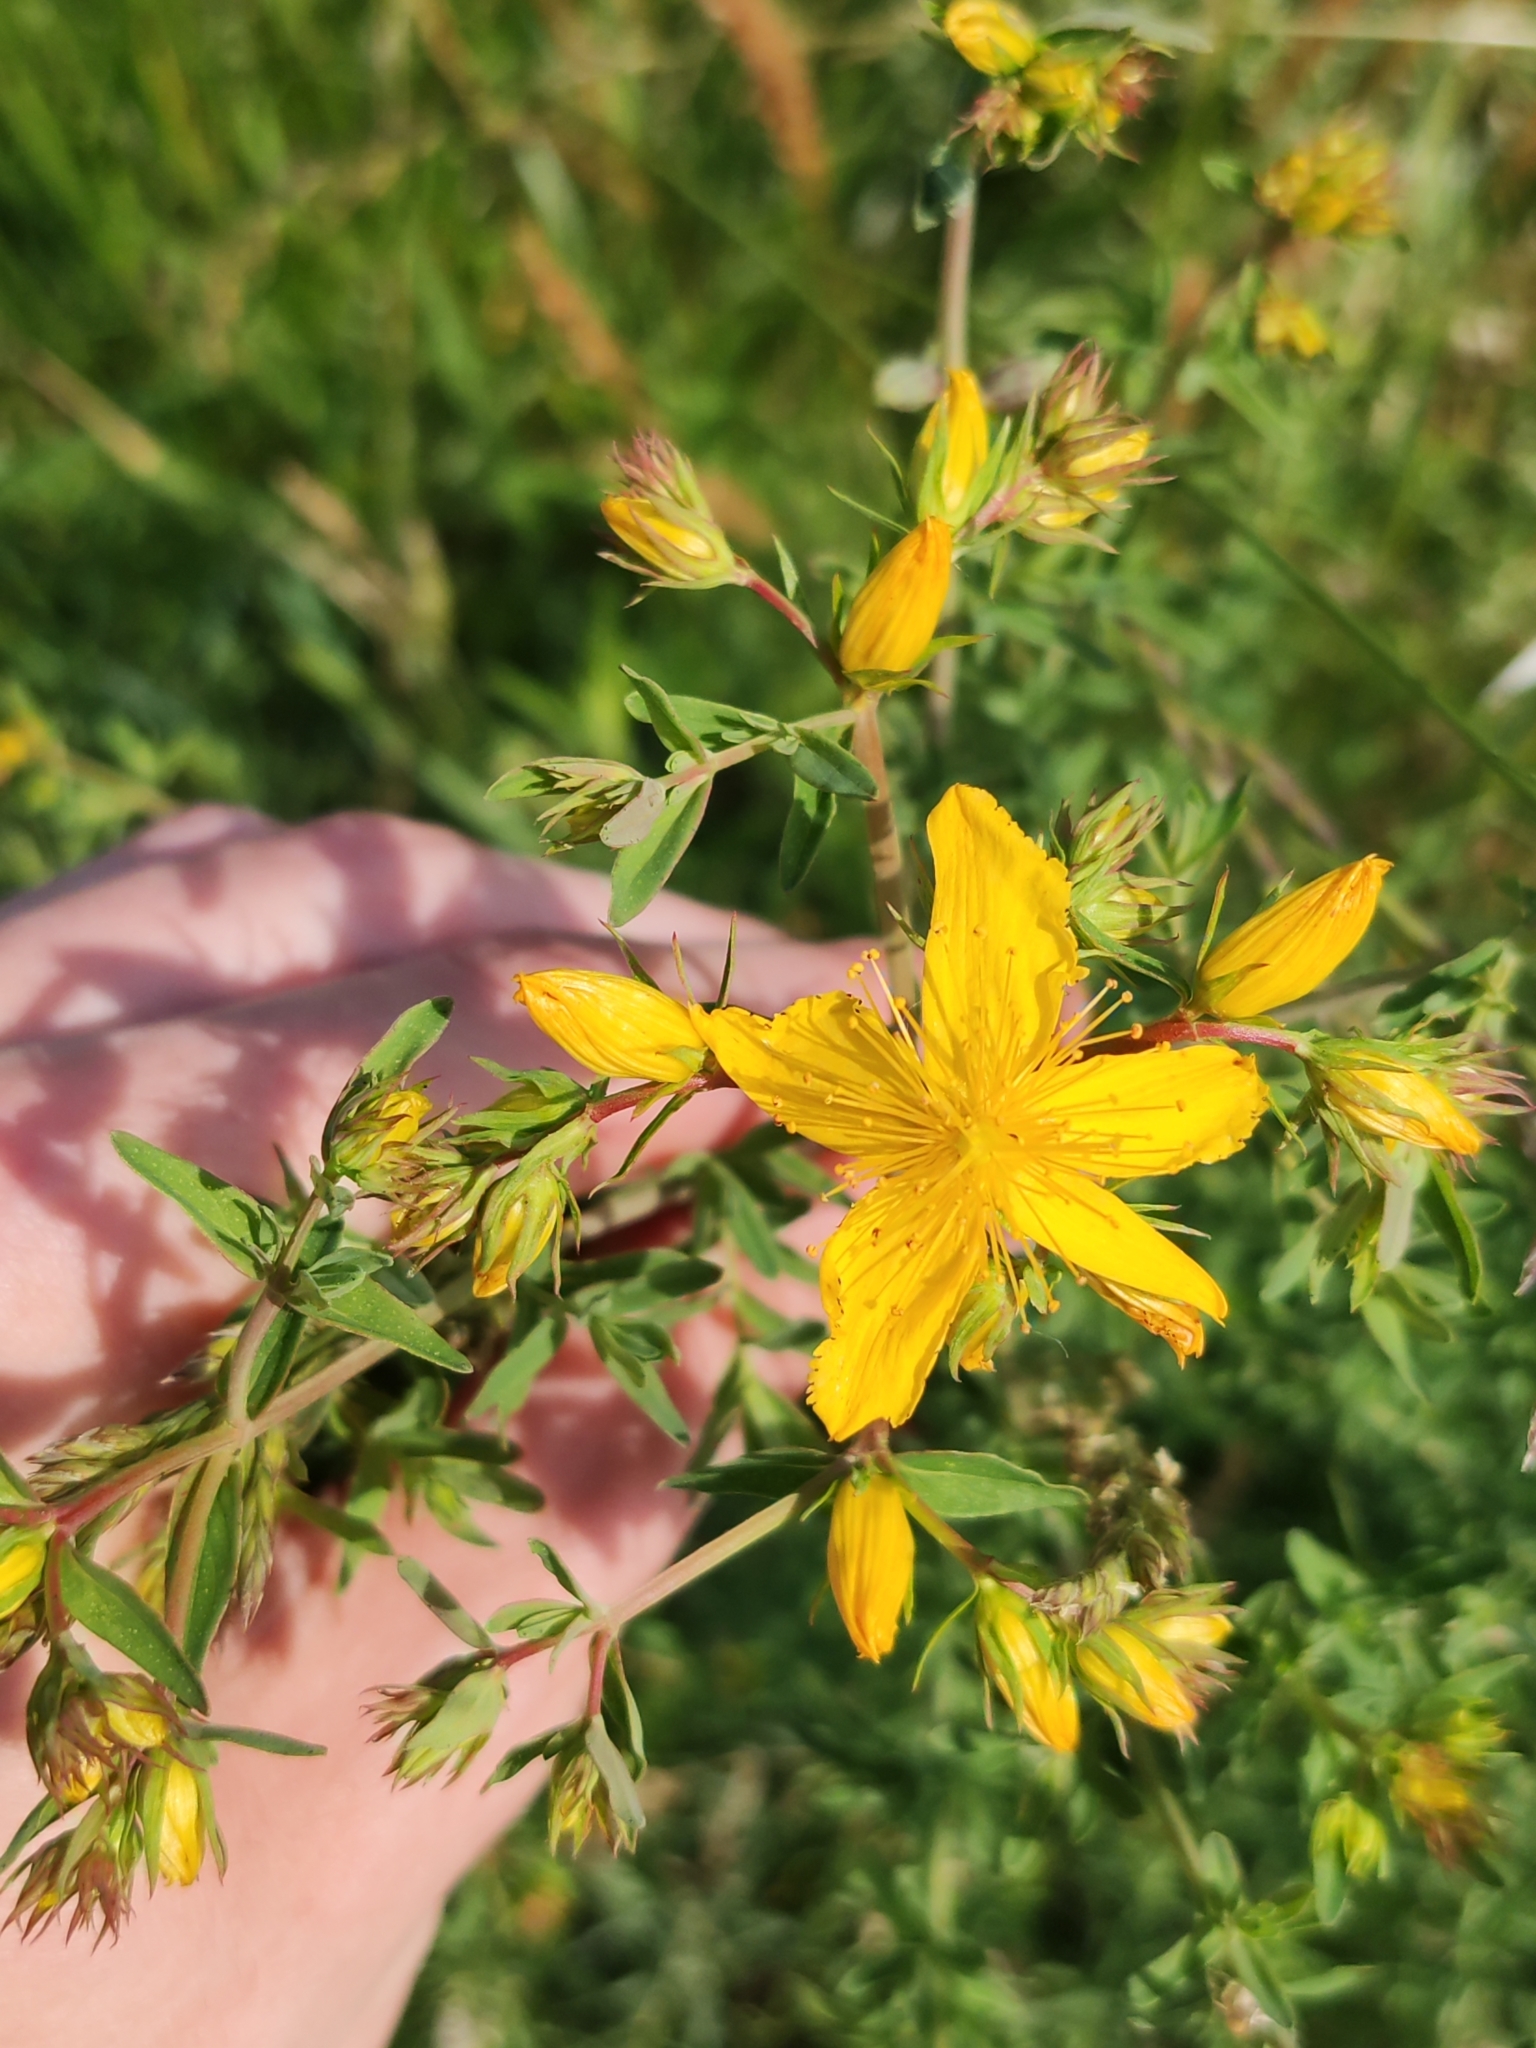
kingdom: Plantae
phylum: Tracheophyta
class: Magnoliopsida
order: Malpighiales
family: Hypericaceae
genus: Hypericum
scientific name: Hypericum perforatum
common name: Common st. johnswort
